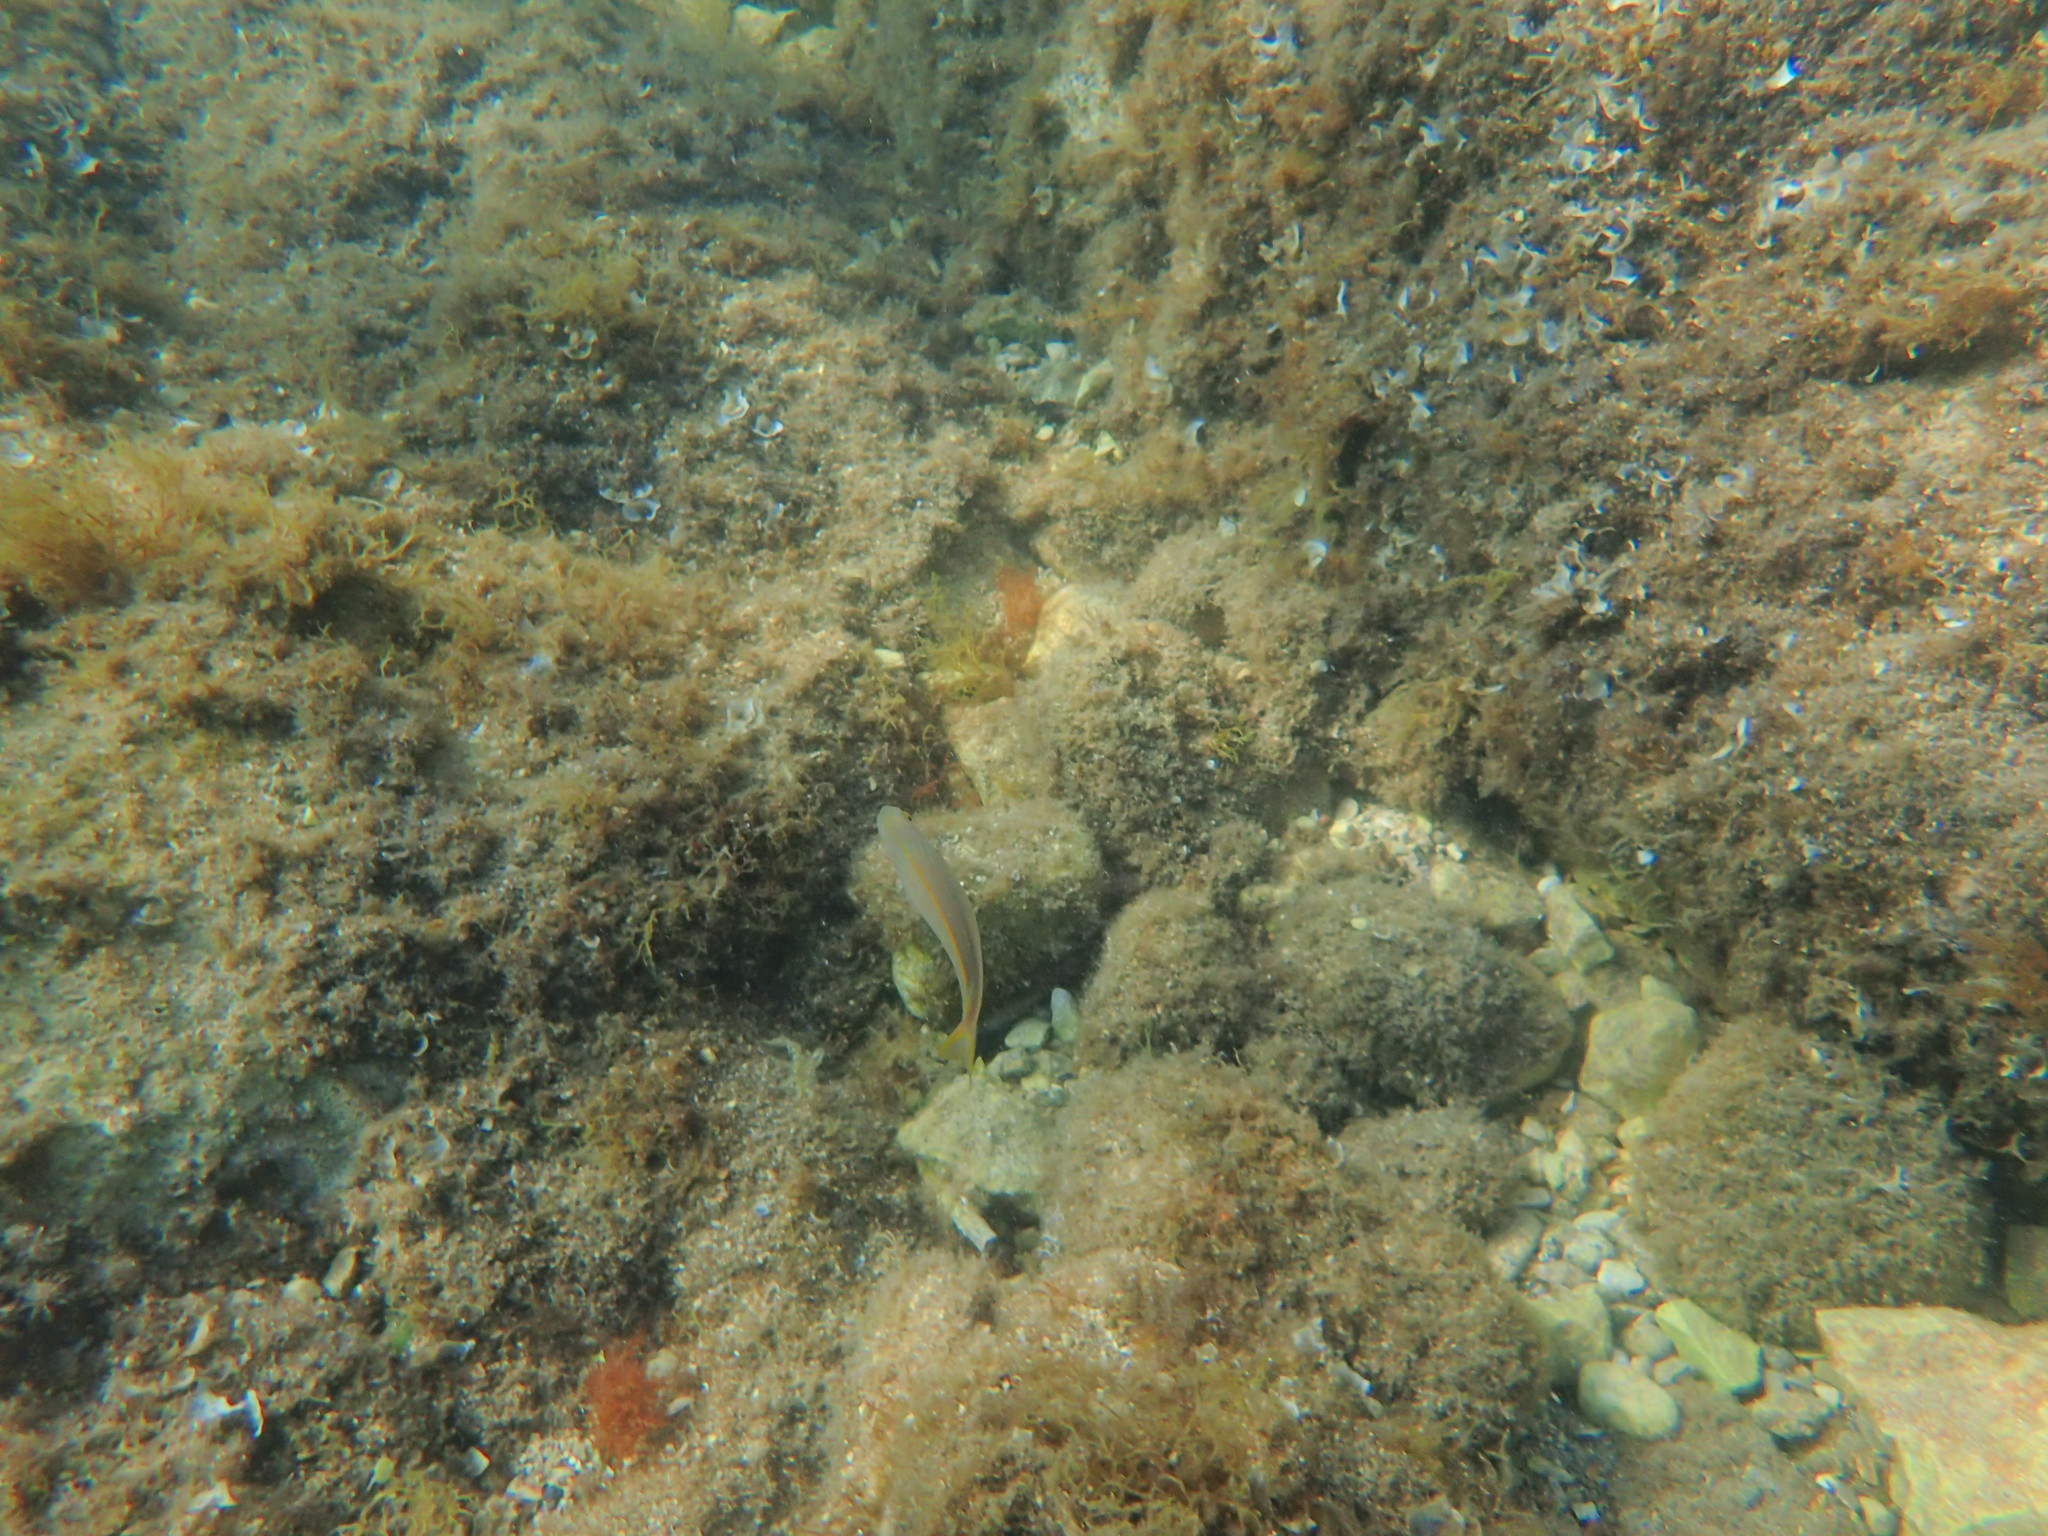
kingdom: Animalia
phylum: Chordata
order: Perciformes
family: Sparidae
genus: Sarpa
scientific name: Sarpa salpa
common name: Salema
